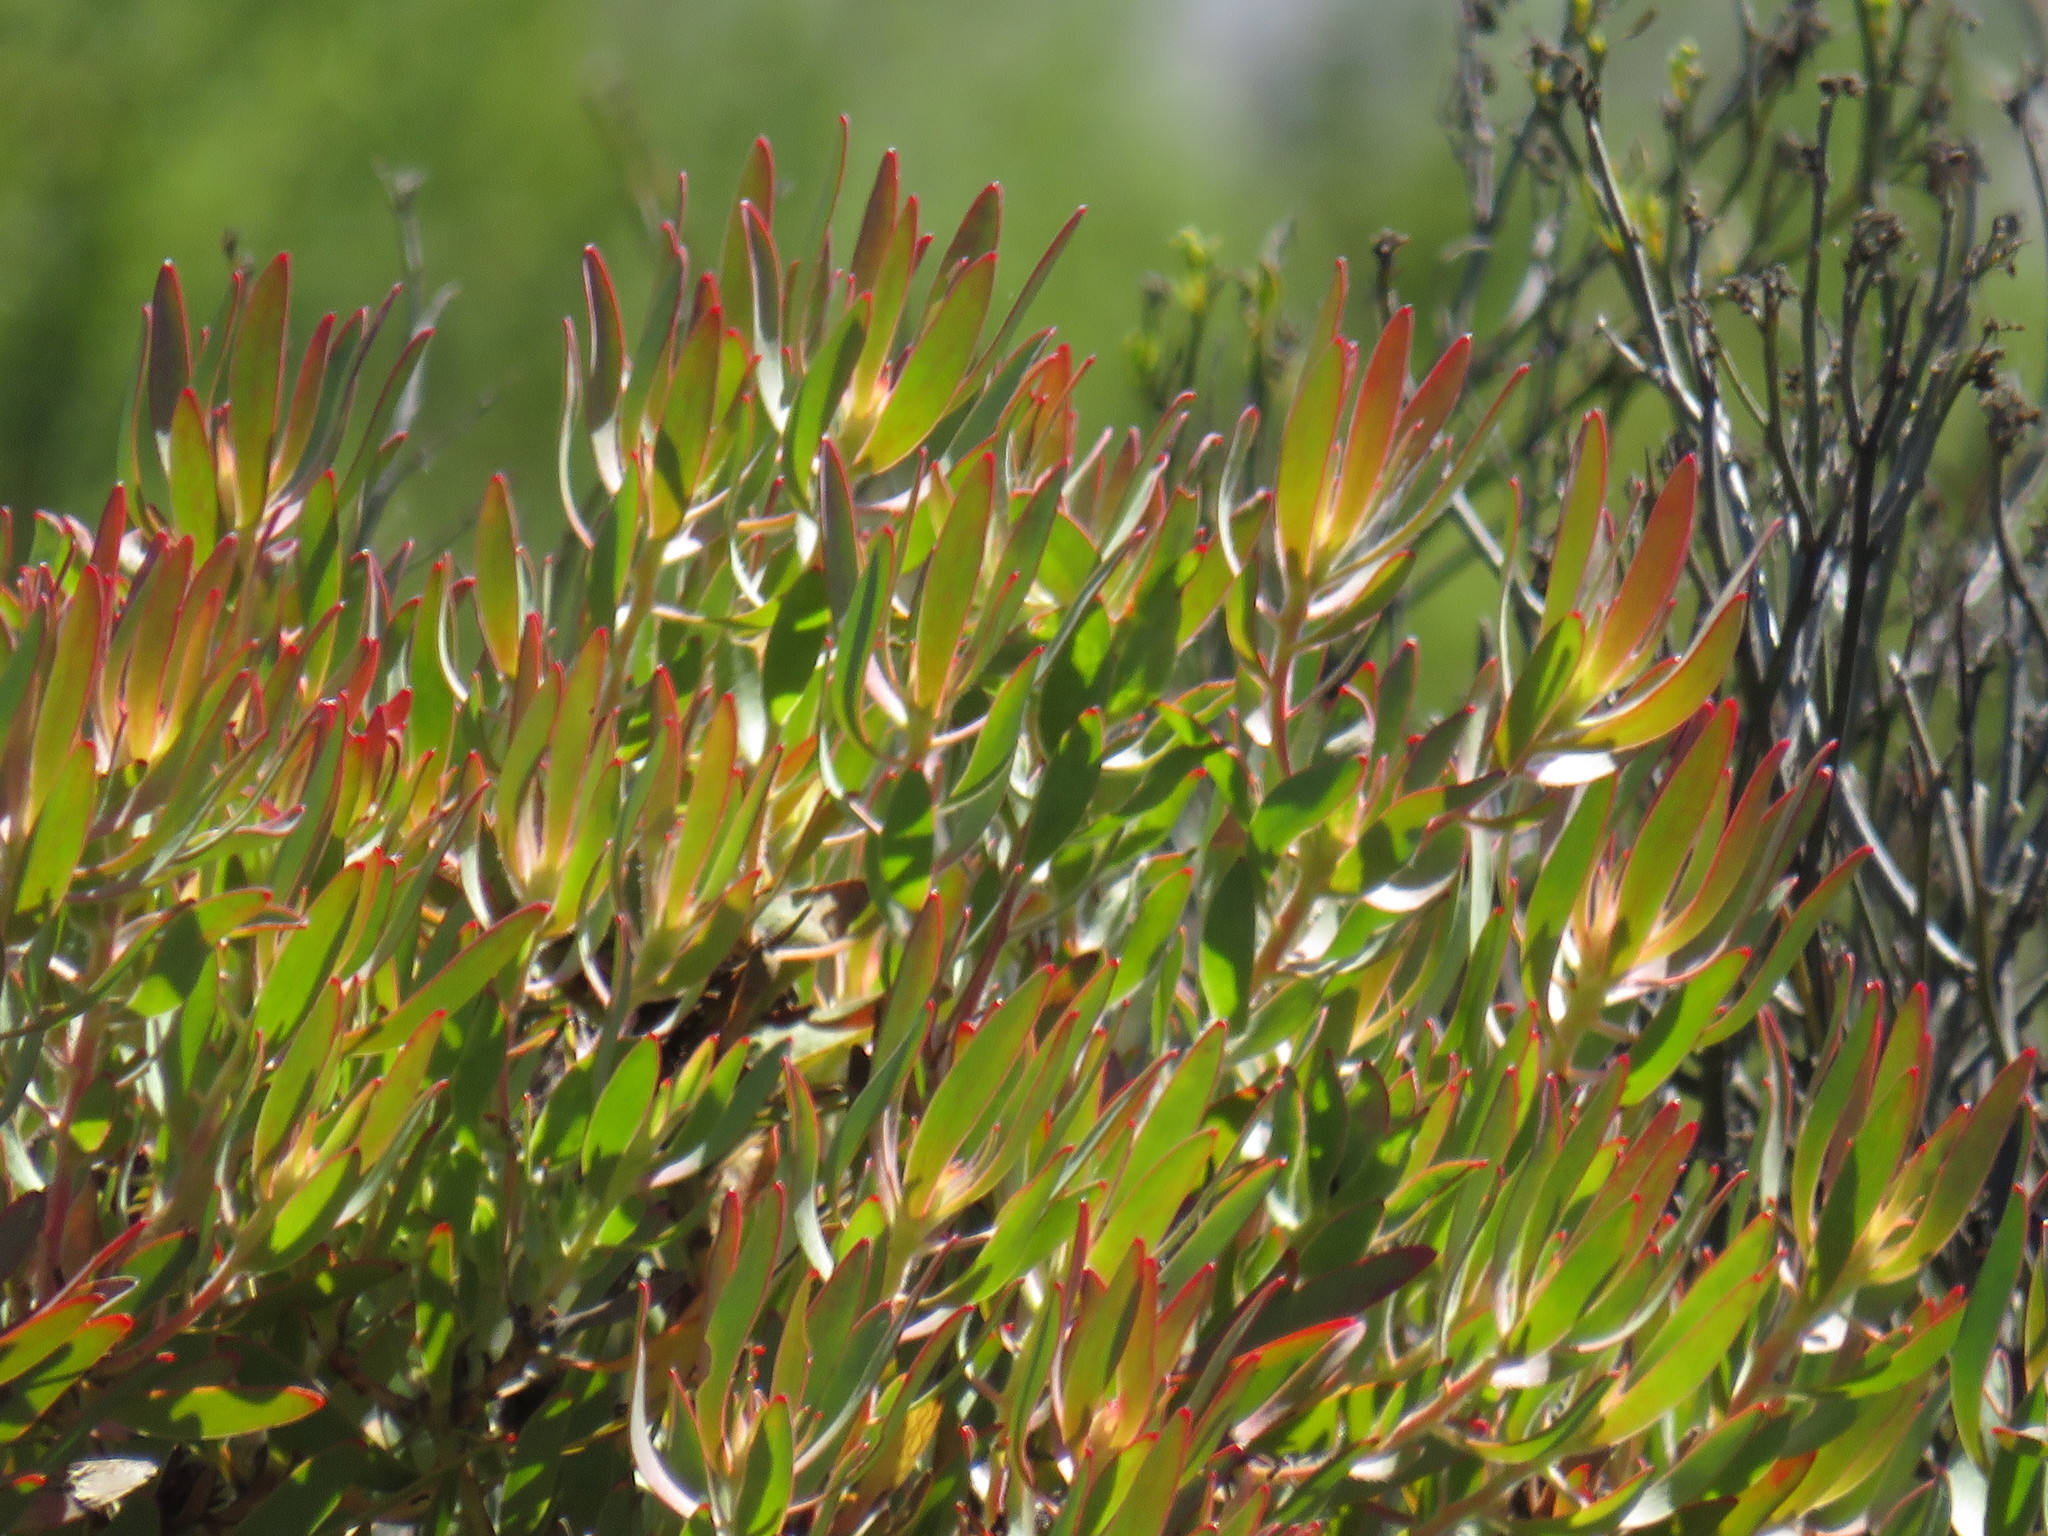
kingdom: Plantae
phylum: Tracheophyta
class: Magnoliopsida
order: Proteales
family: Proteaceae
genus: Leucadendron
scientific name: Leucadendron glaberrimum
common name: Common oily conebush
